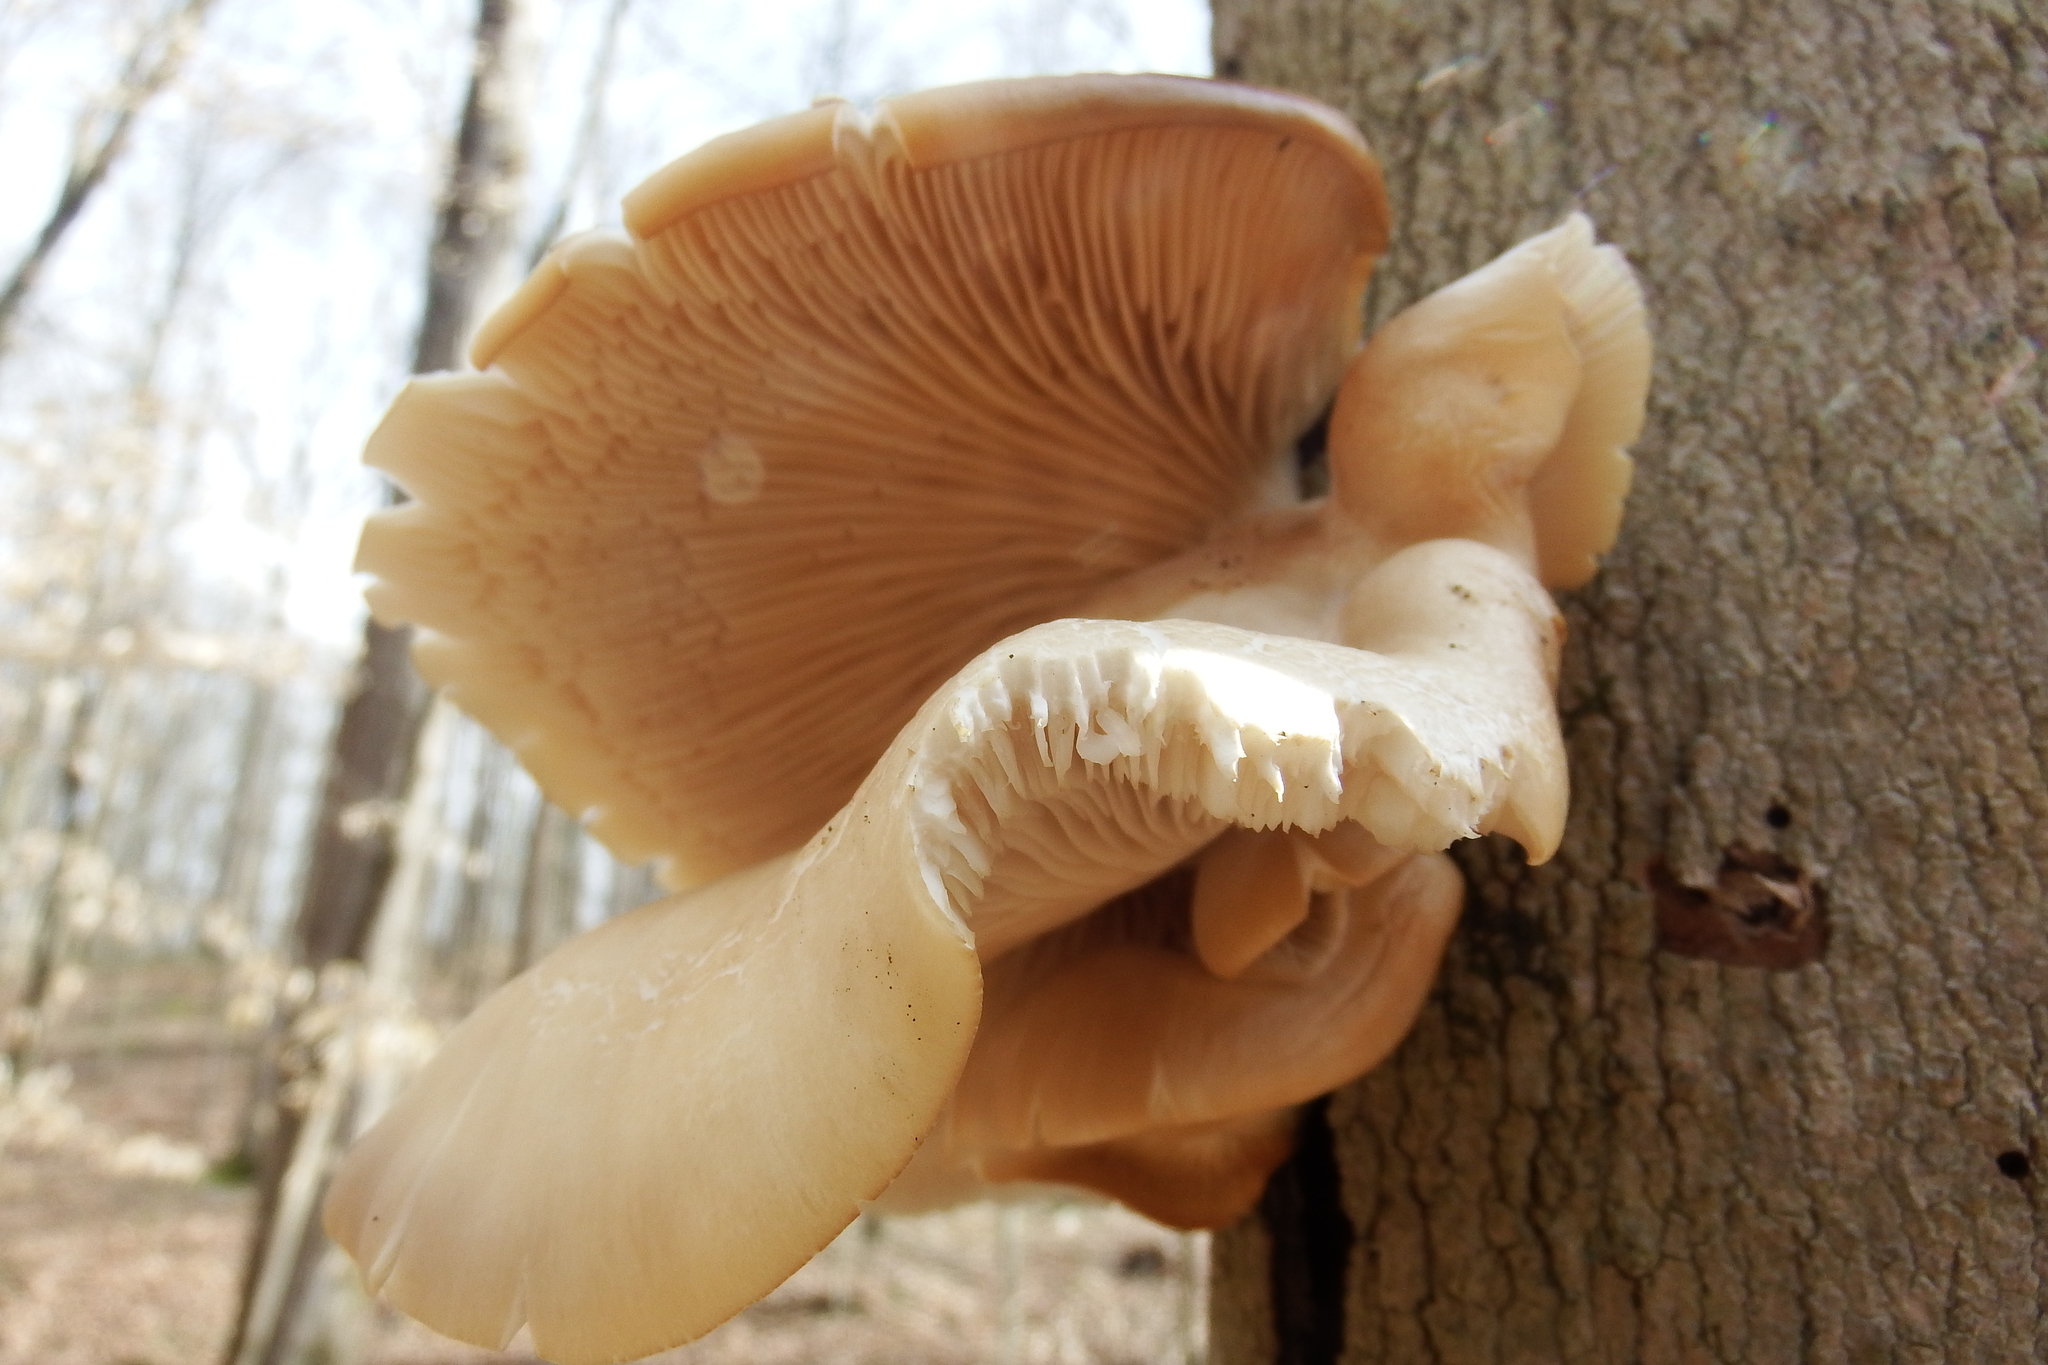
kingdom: Fungi
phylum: Basidiomycota
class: Agaricomycetes
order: Agaricales
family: Pleurotaceae
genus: Pleurotus
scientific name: Pleurotus ostreatus
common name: Oyster mushroom
